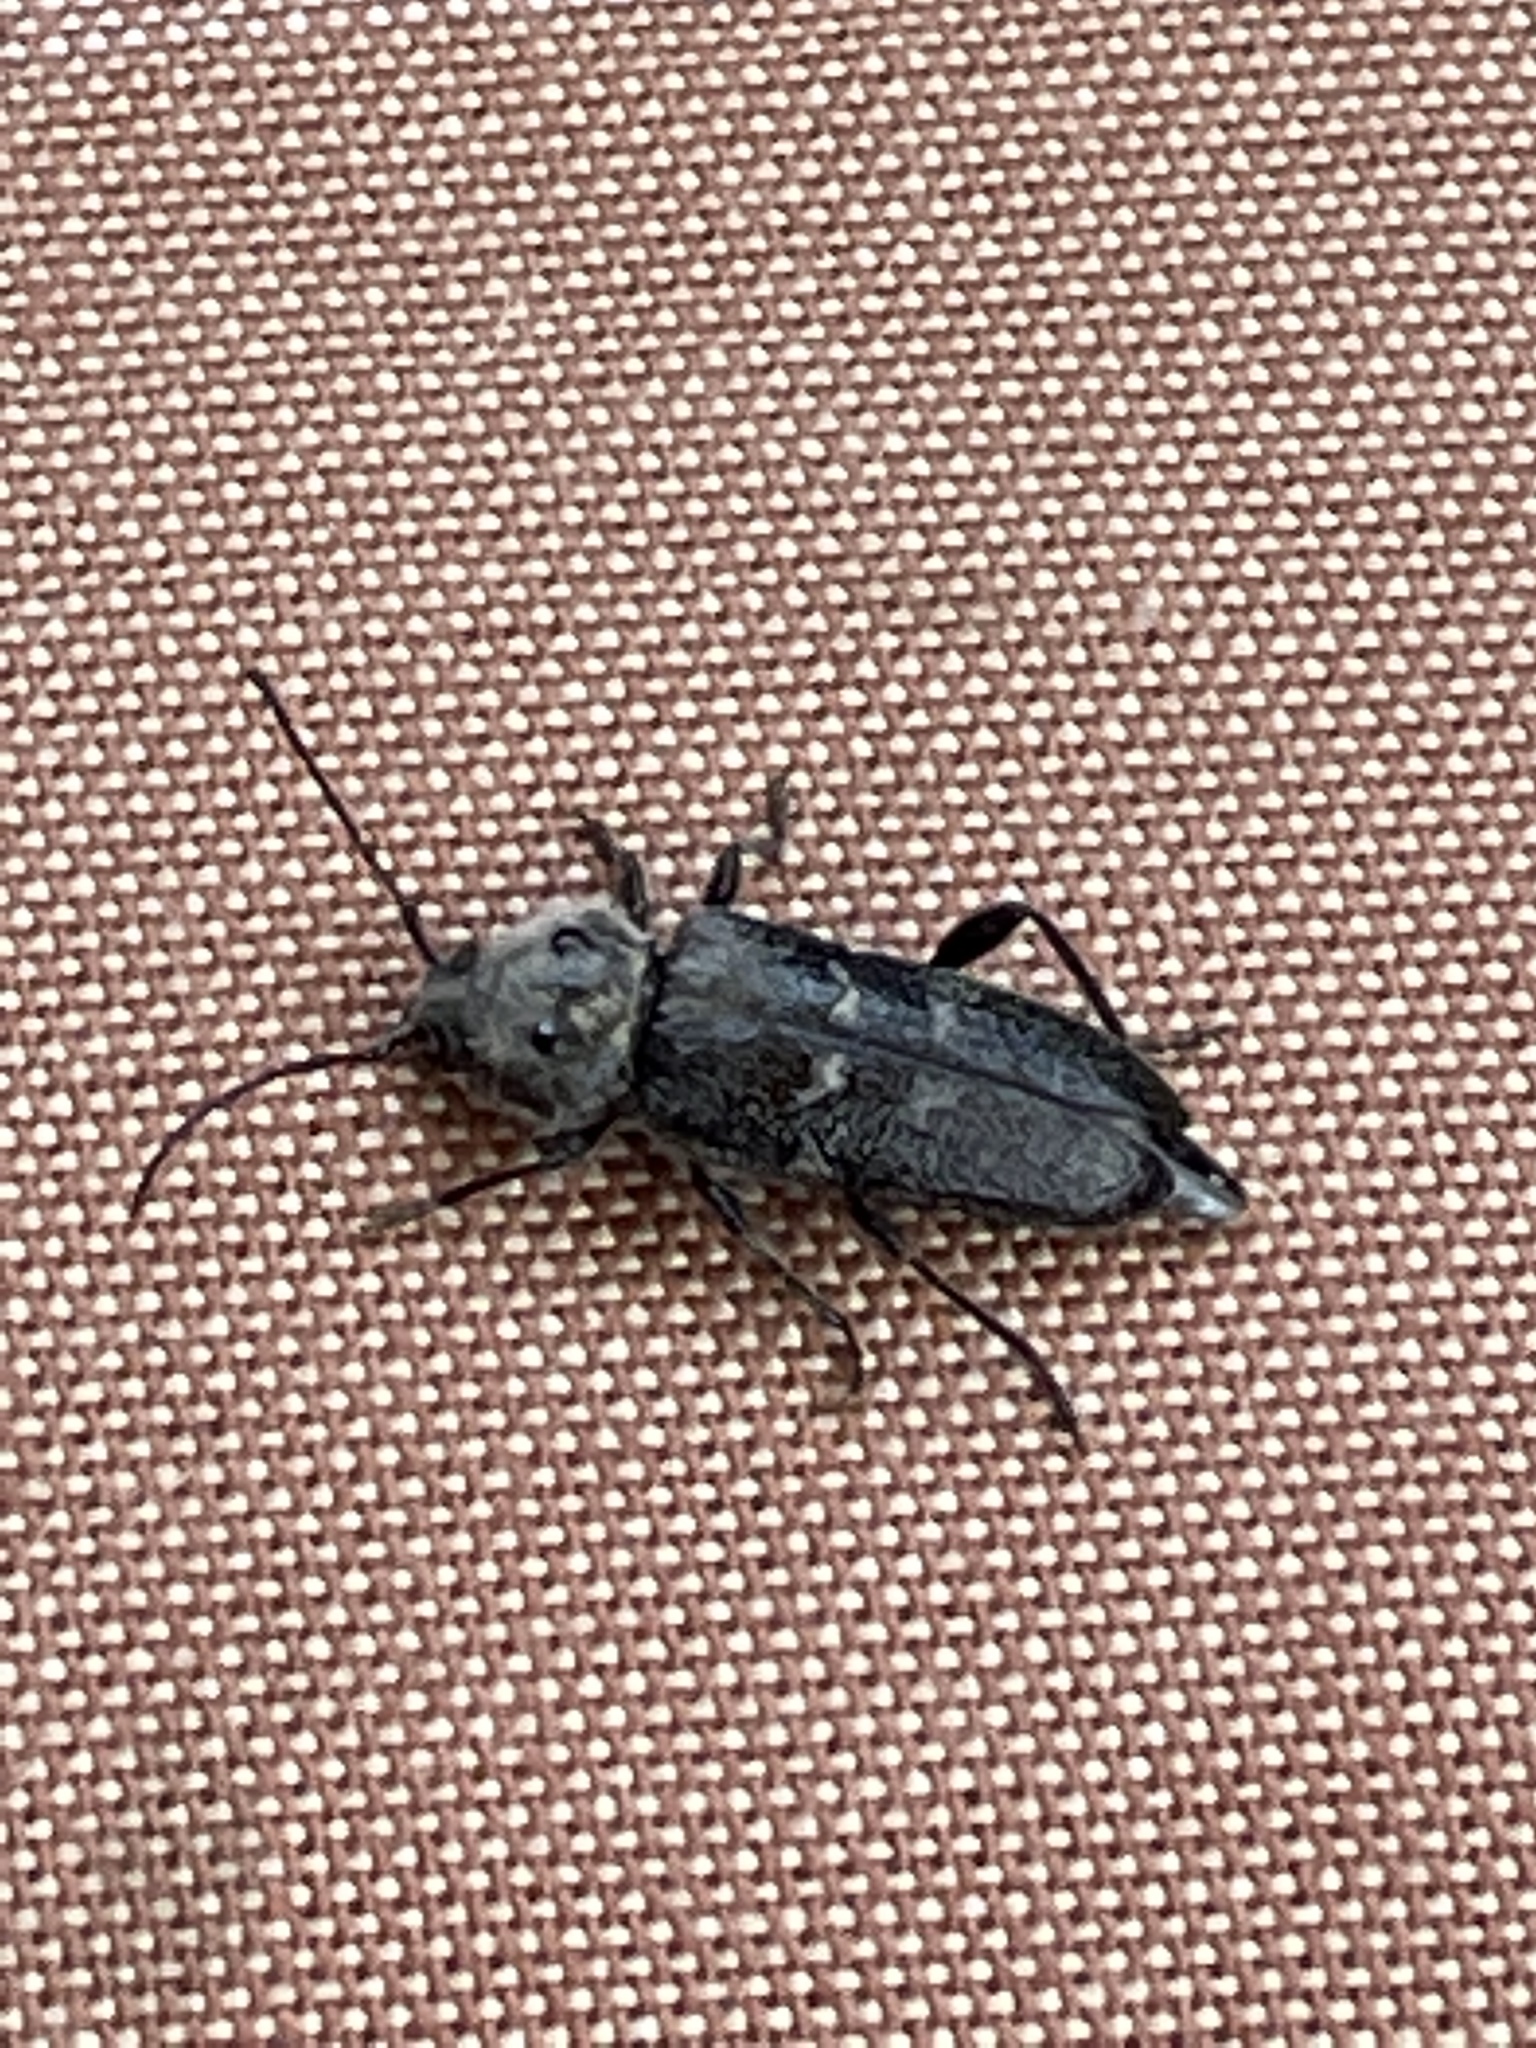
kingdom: Animalia
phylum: Arthropoda
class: Insecta
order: Coleoptera
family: Cerambycidae
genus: Hylotrupes
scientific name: Hylotrupes bajulus
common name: Old house borer
